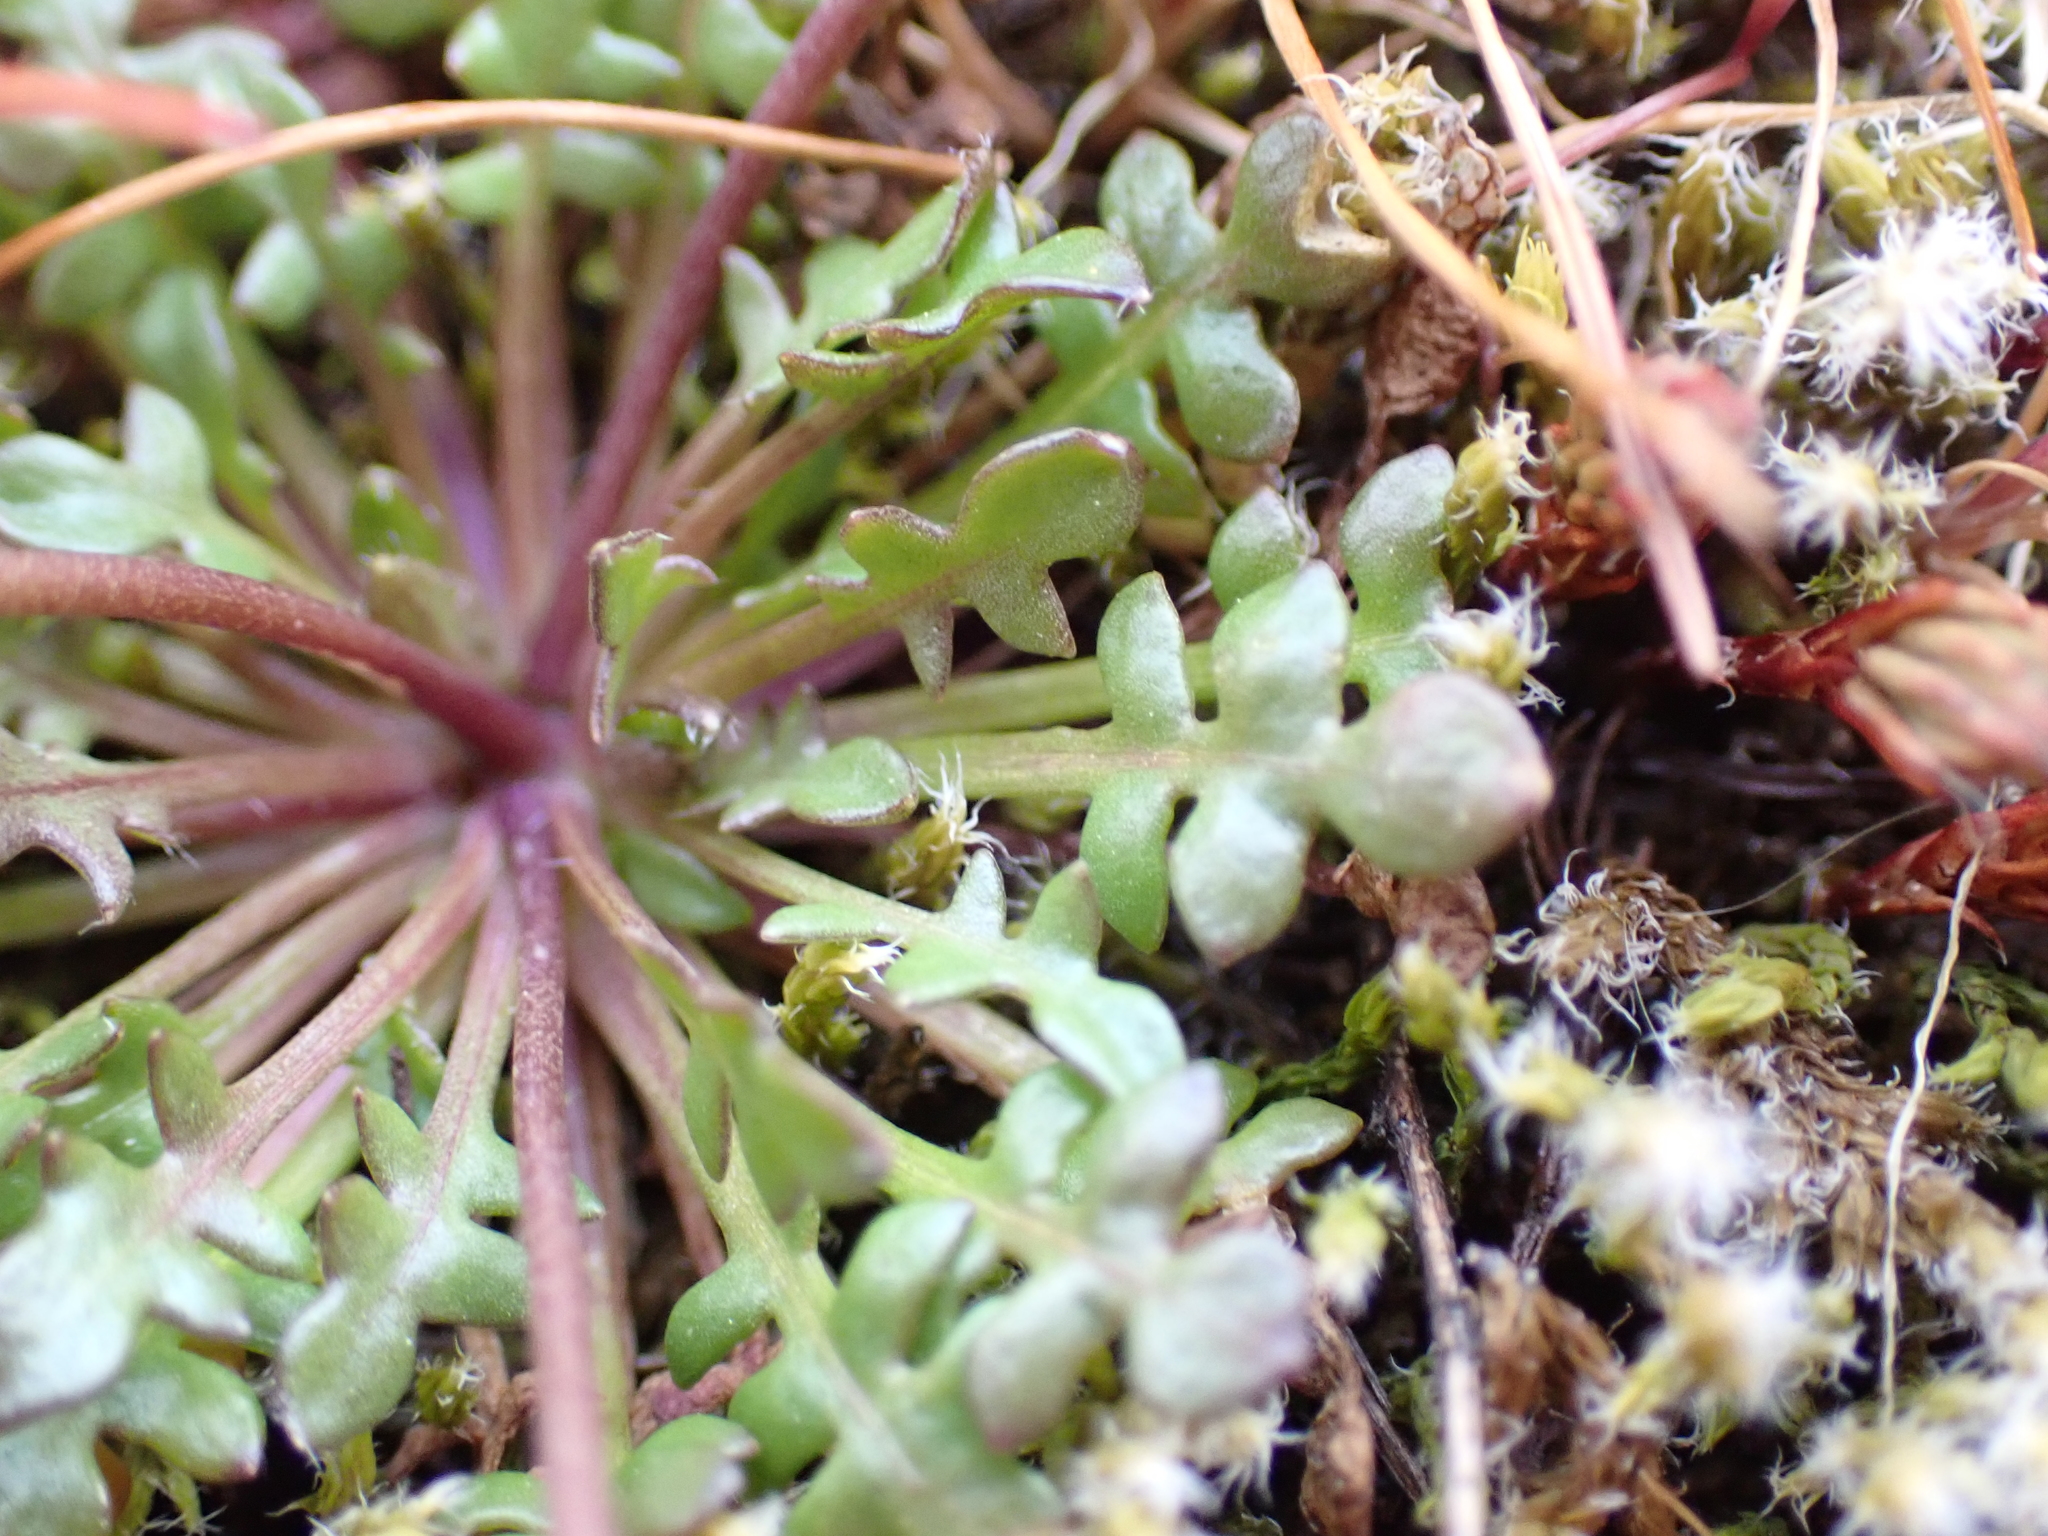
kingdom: Plantae
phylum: Tracheophyta
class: Magnoliopsida
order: Brassicales
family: Brassicaceae
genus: Teesdalia
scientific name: Teesdalia nudicaulis
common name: Shepherd's cress
